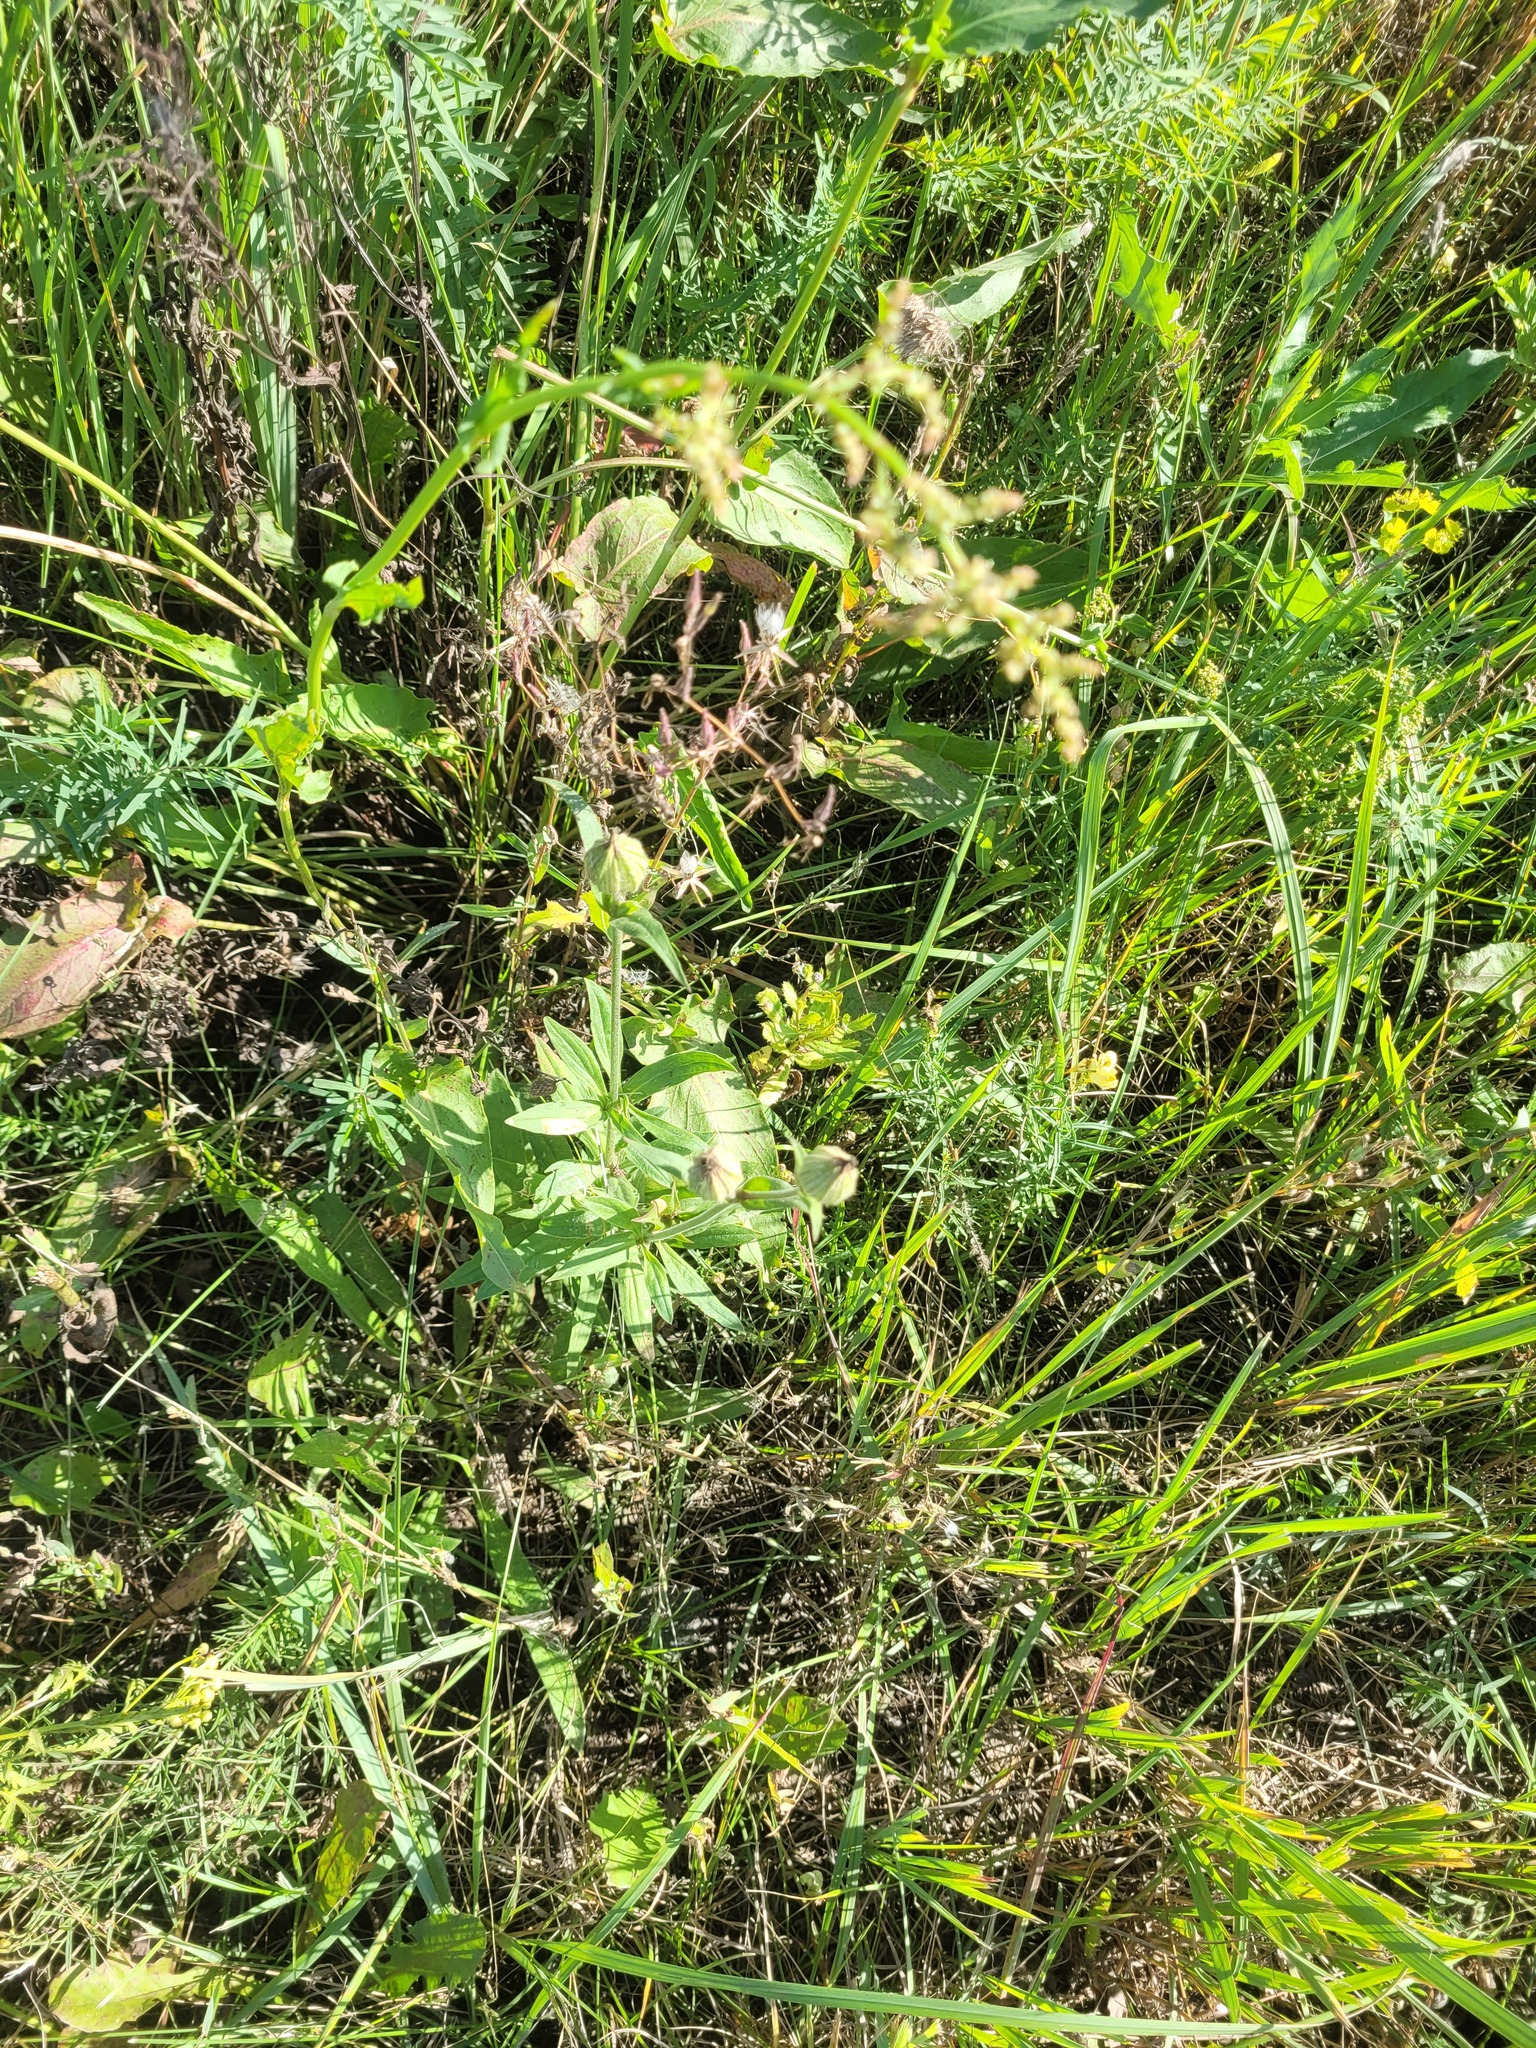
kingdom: Plantae
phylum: Tracheophyta
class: Magnoliopsida
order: Caryophyllales
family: Caryophyllaceae
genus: Silene
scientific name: Silene latifolia
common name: White campion
